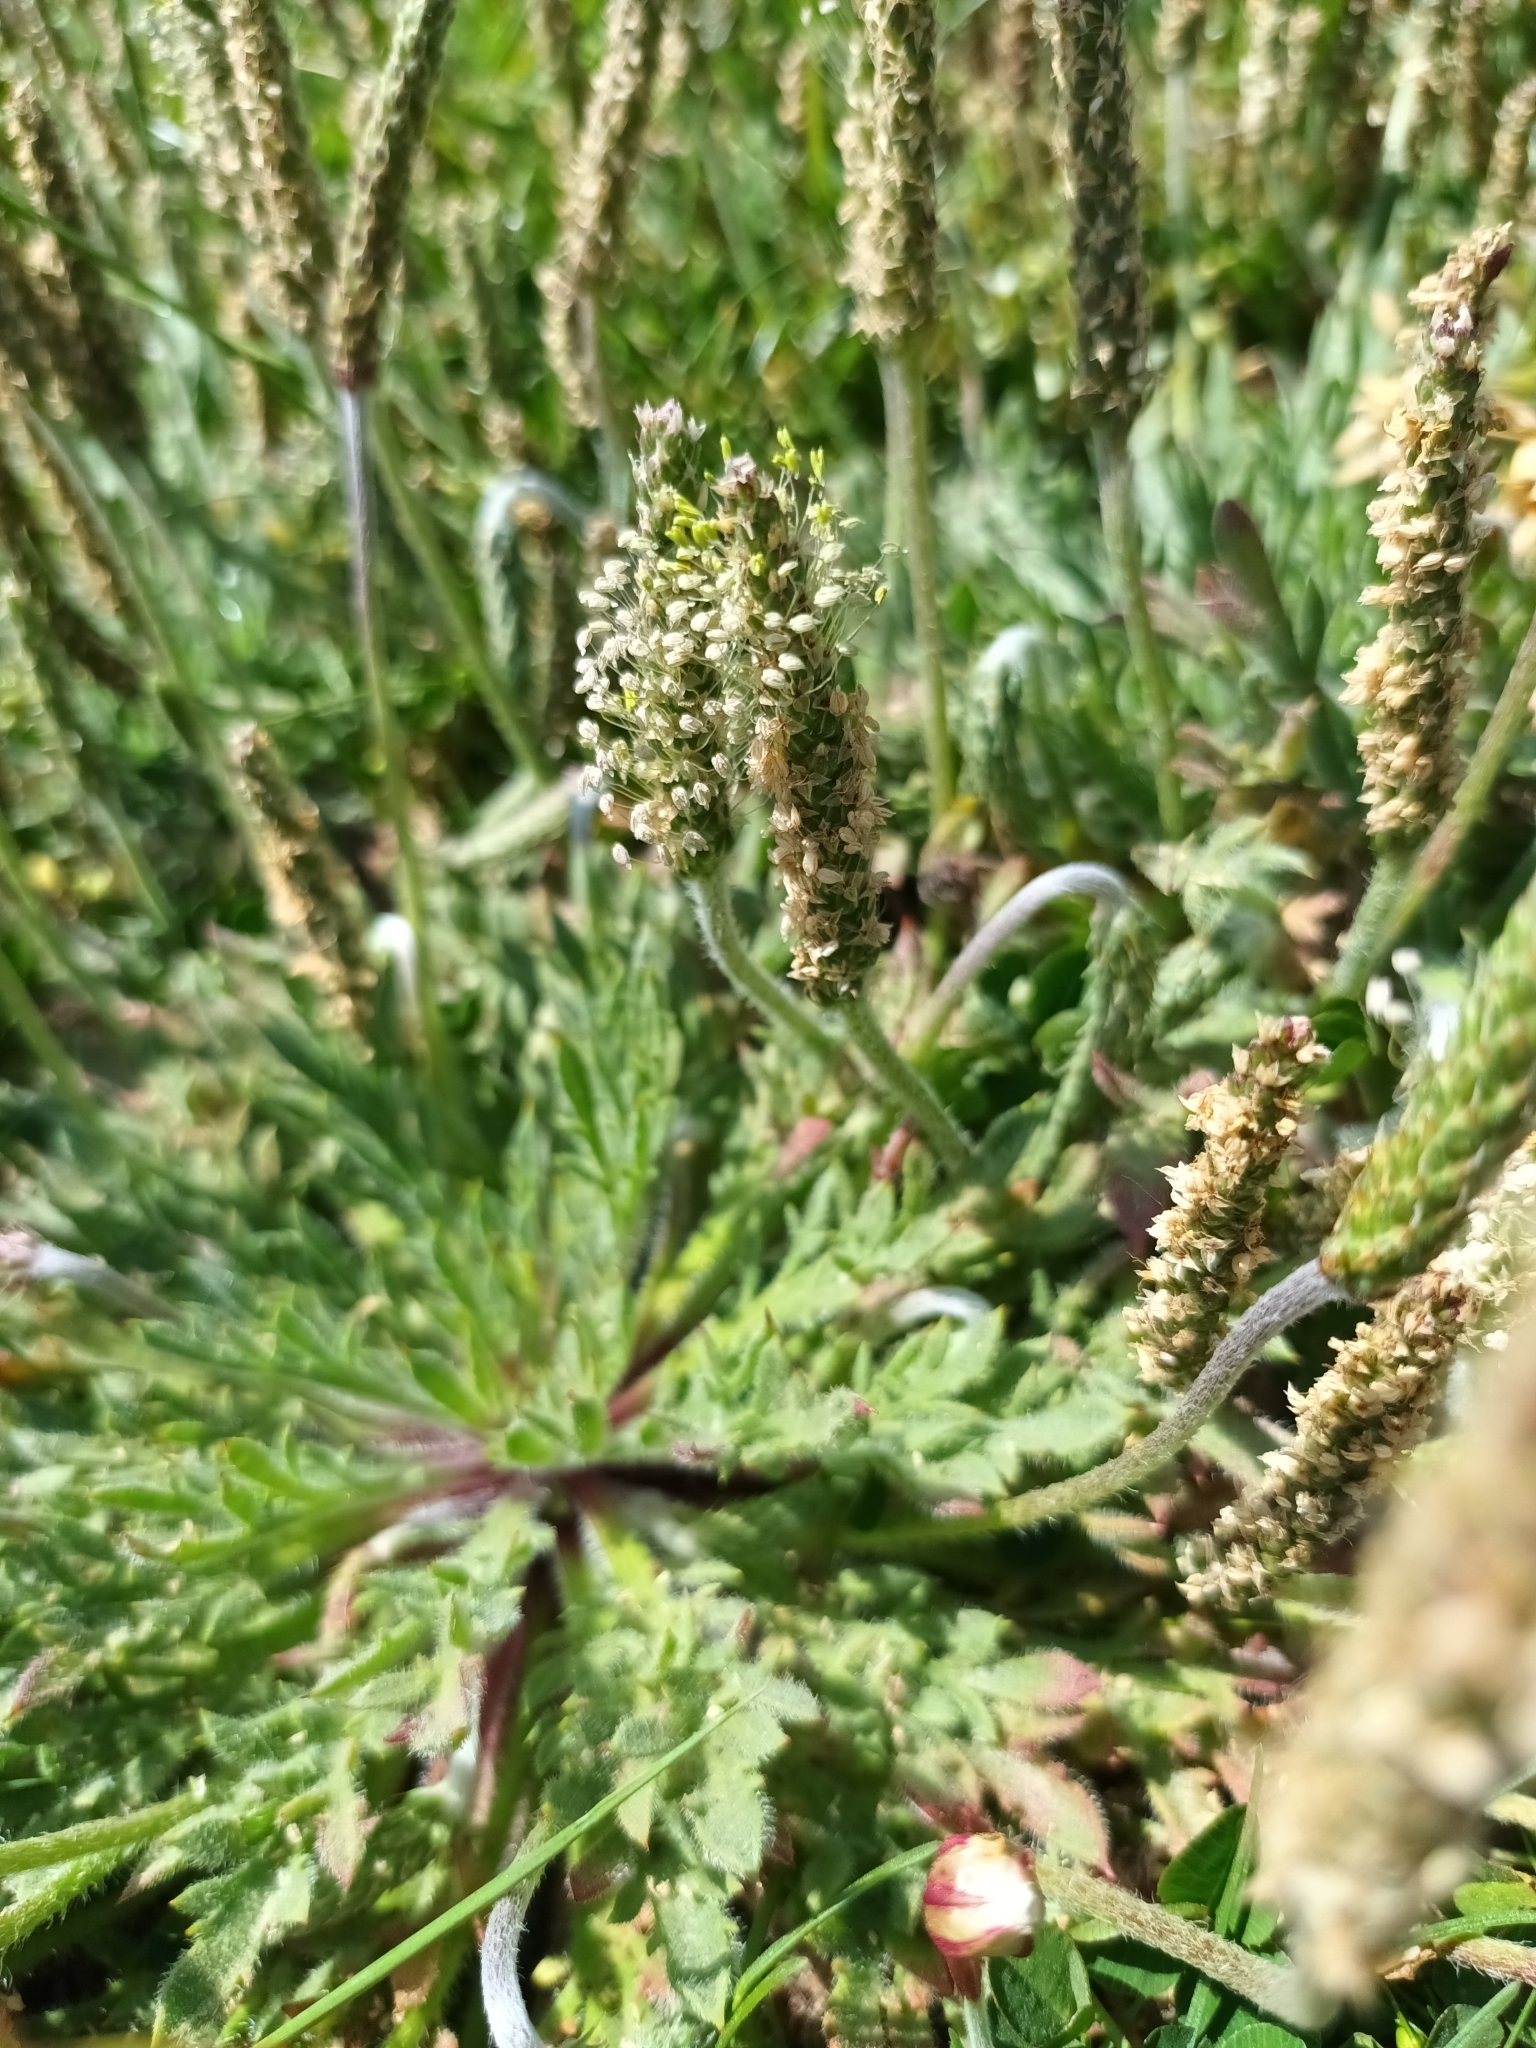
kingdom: Plantae
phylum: Tracheophyta
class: Magnoliopsida
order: Lamiales
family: Plantaginaceae
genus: Plantago
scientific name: Plantago coronopus
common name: Buck's-horn plantain
